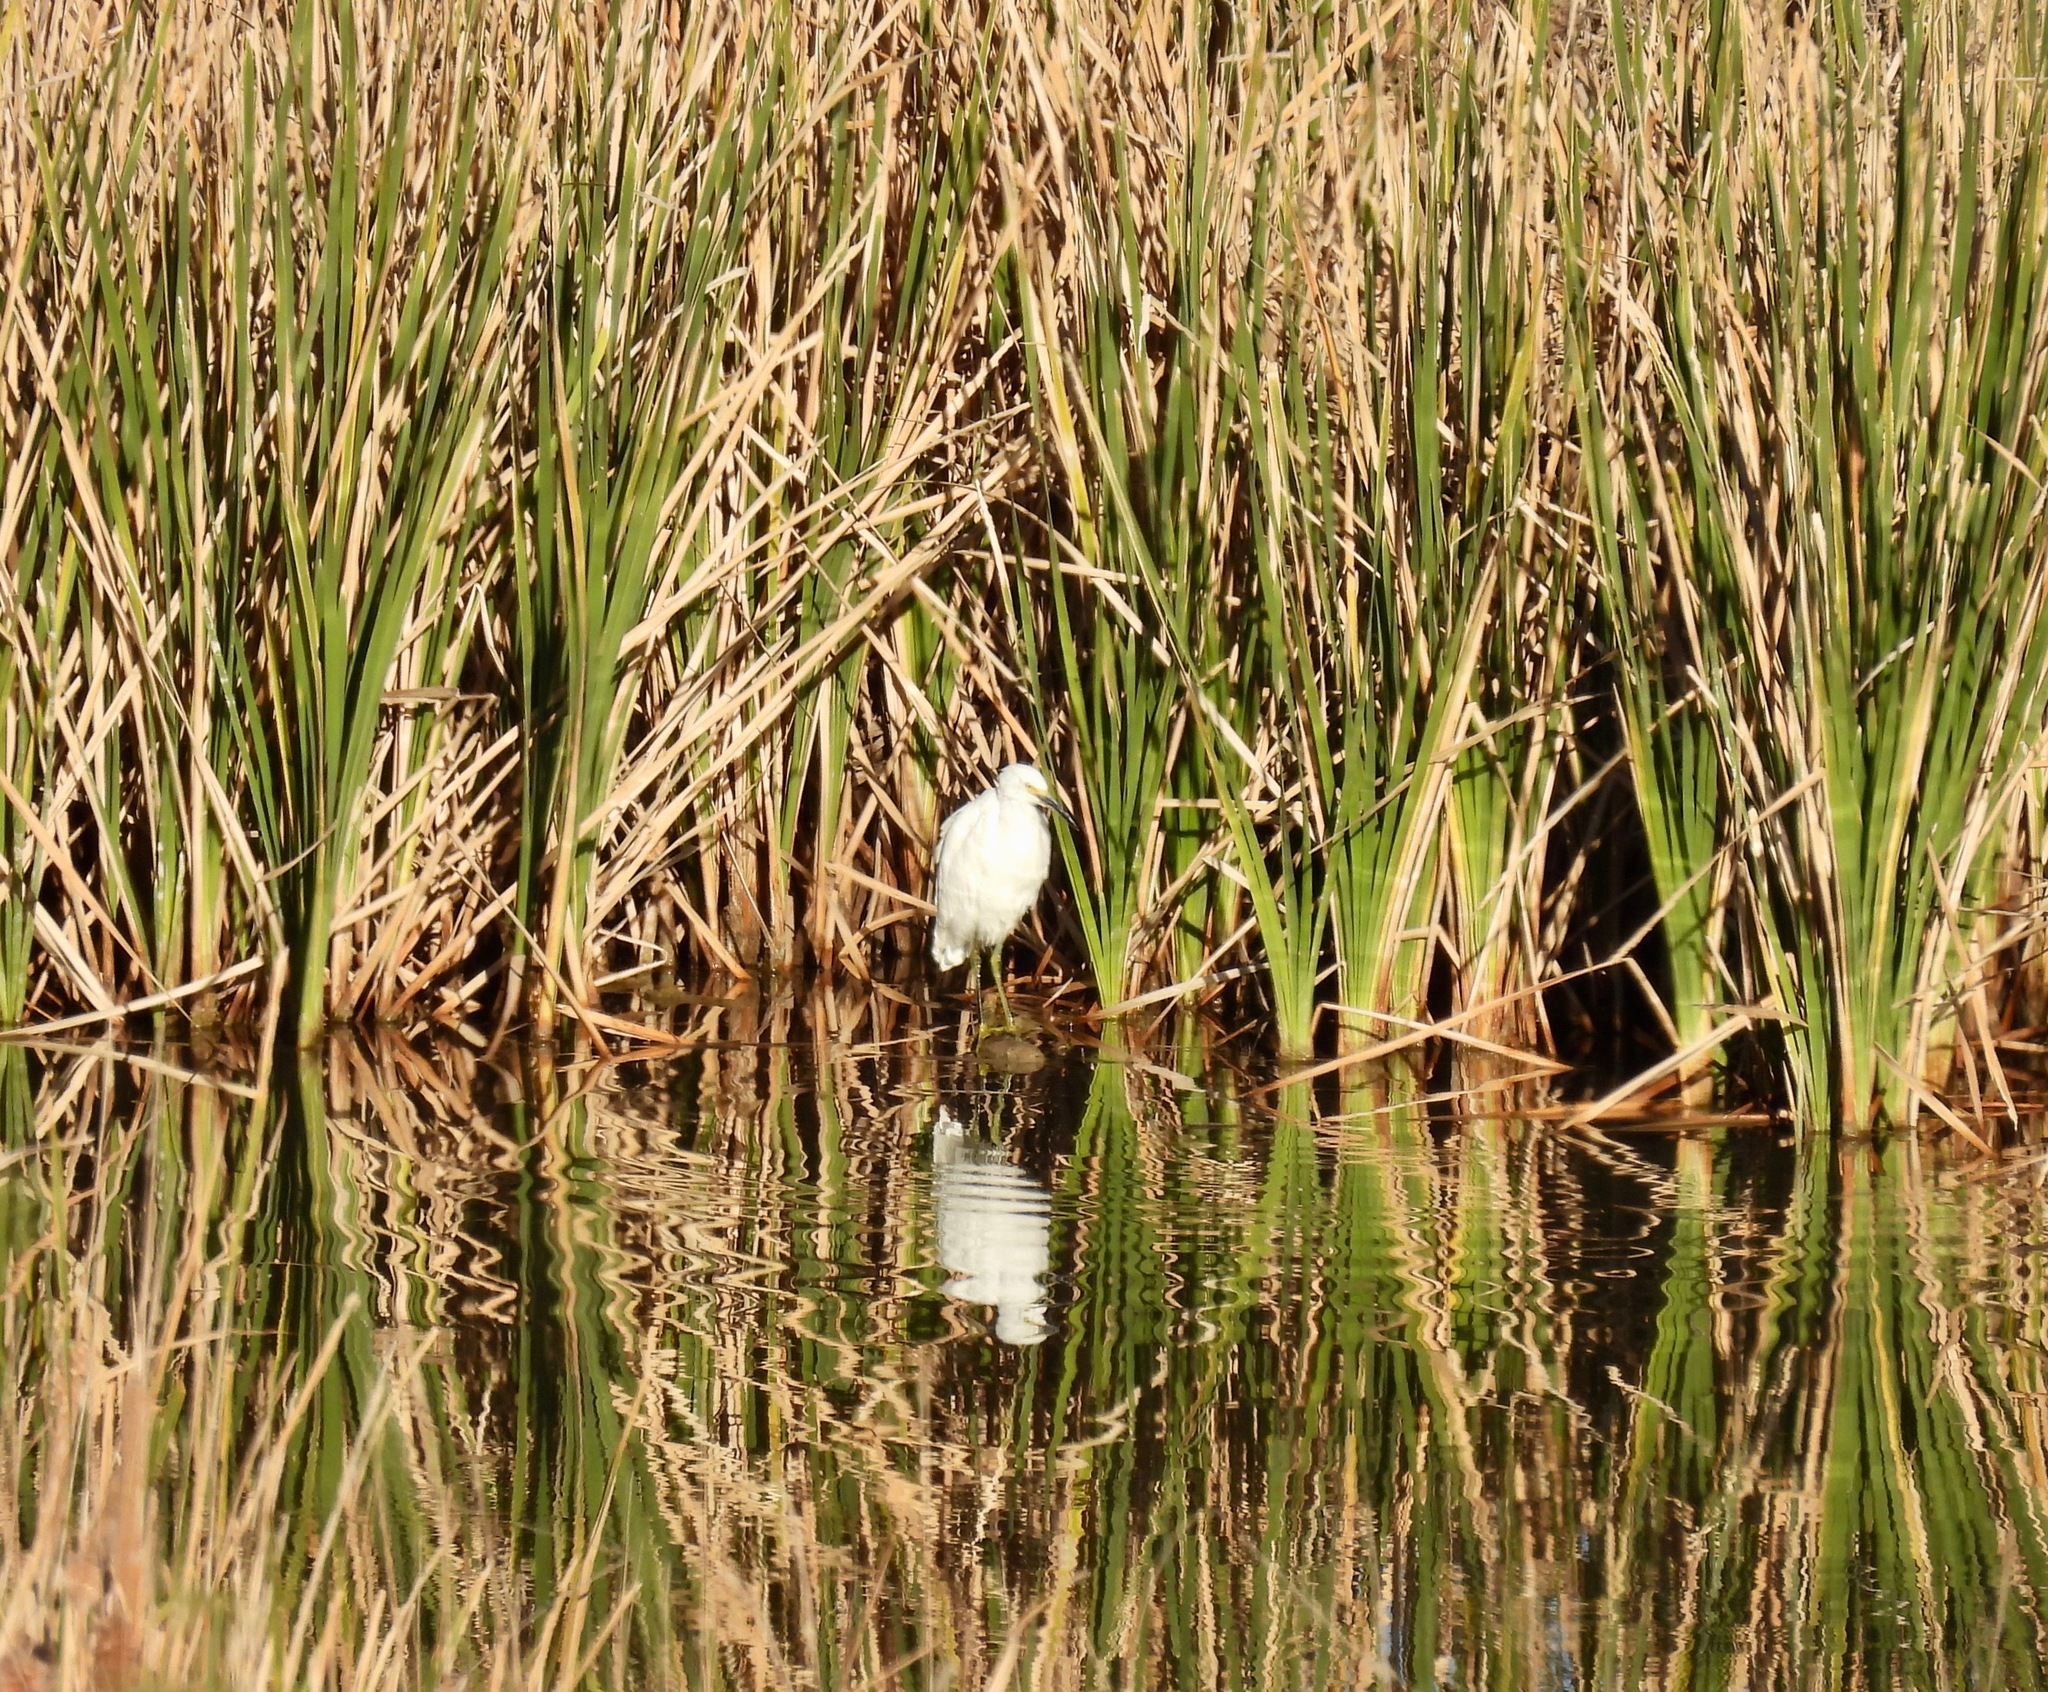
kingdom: Animalia
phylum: Chordata
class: Aves
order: Pelecaniformes
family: Ardeidae
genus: Egretta
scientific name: Egretta thula
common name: Snowy egret
